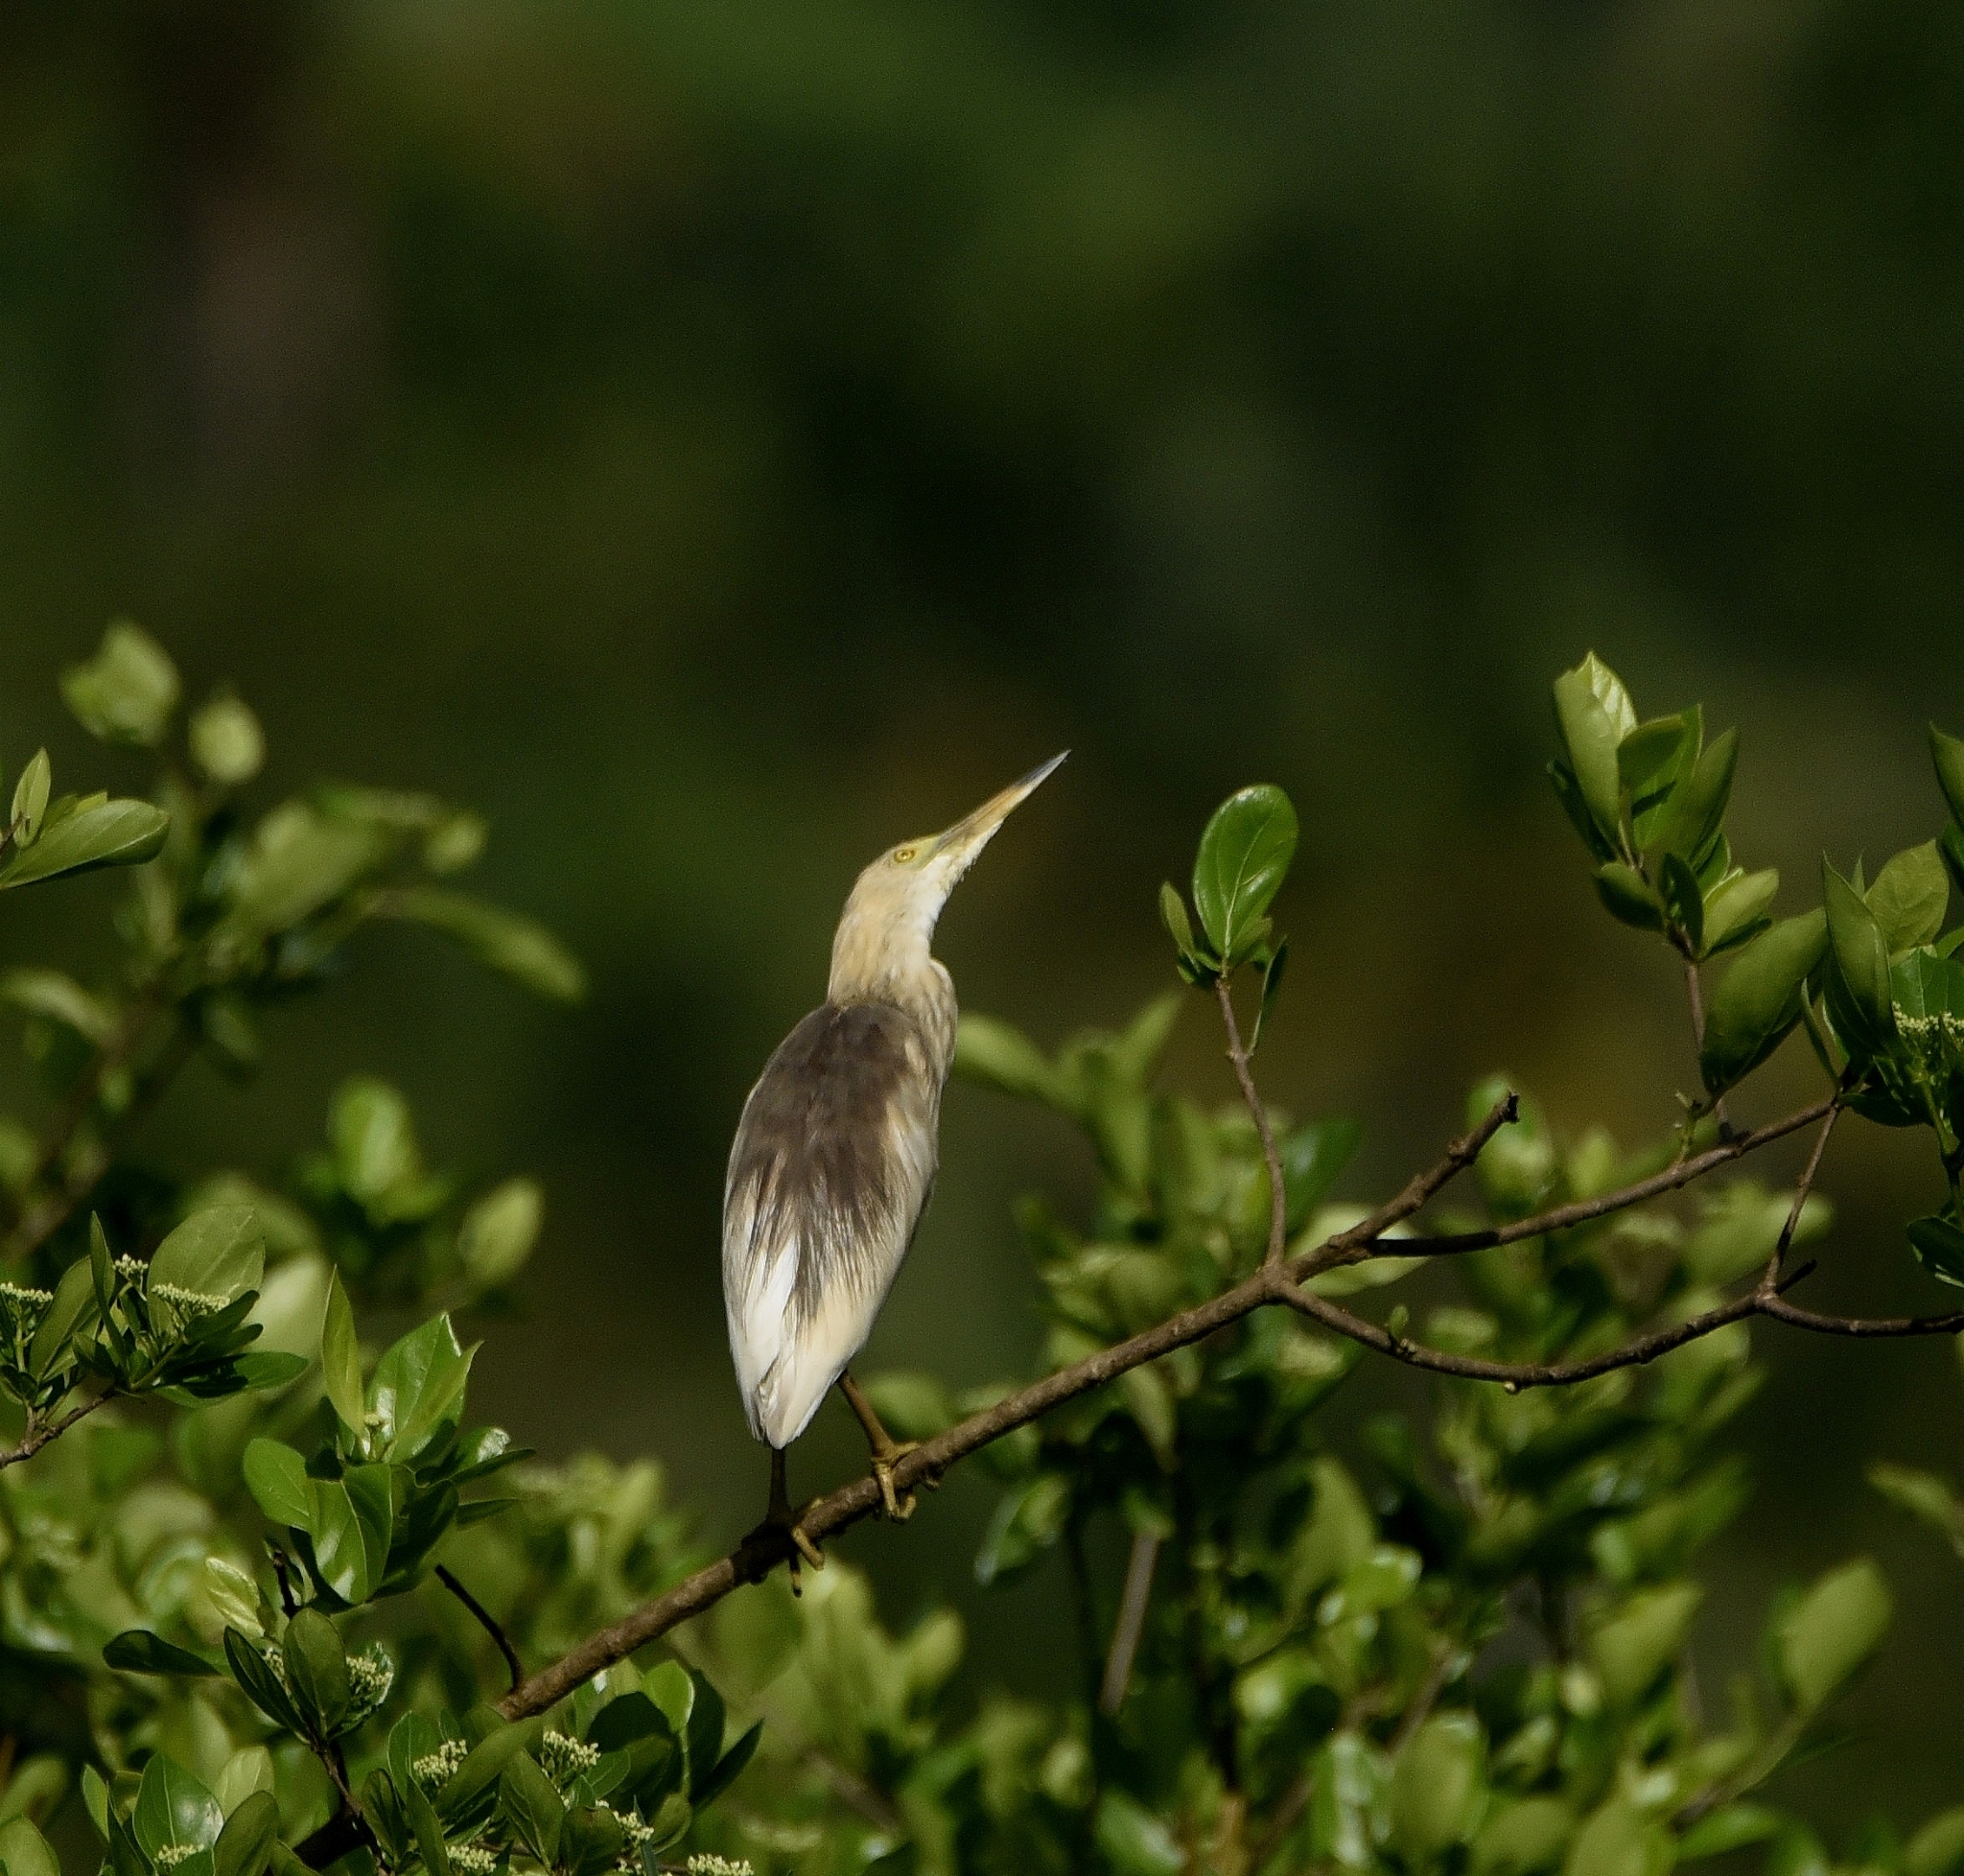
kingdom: Animalia
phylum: Chordata
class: Aves
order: Pelecaniformes
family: Ardeidae
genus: Ardeola
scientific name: Ardeola grayii
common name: Indian pond heron
